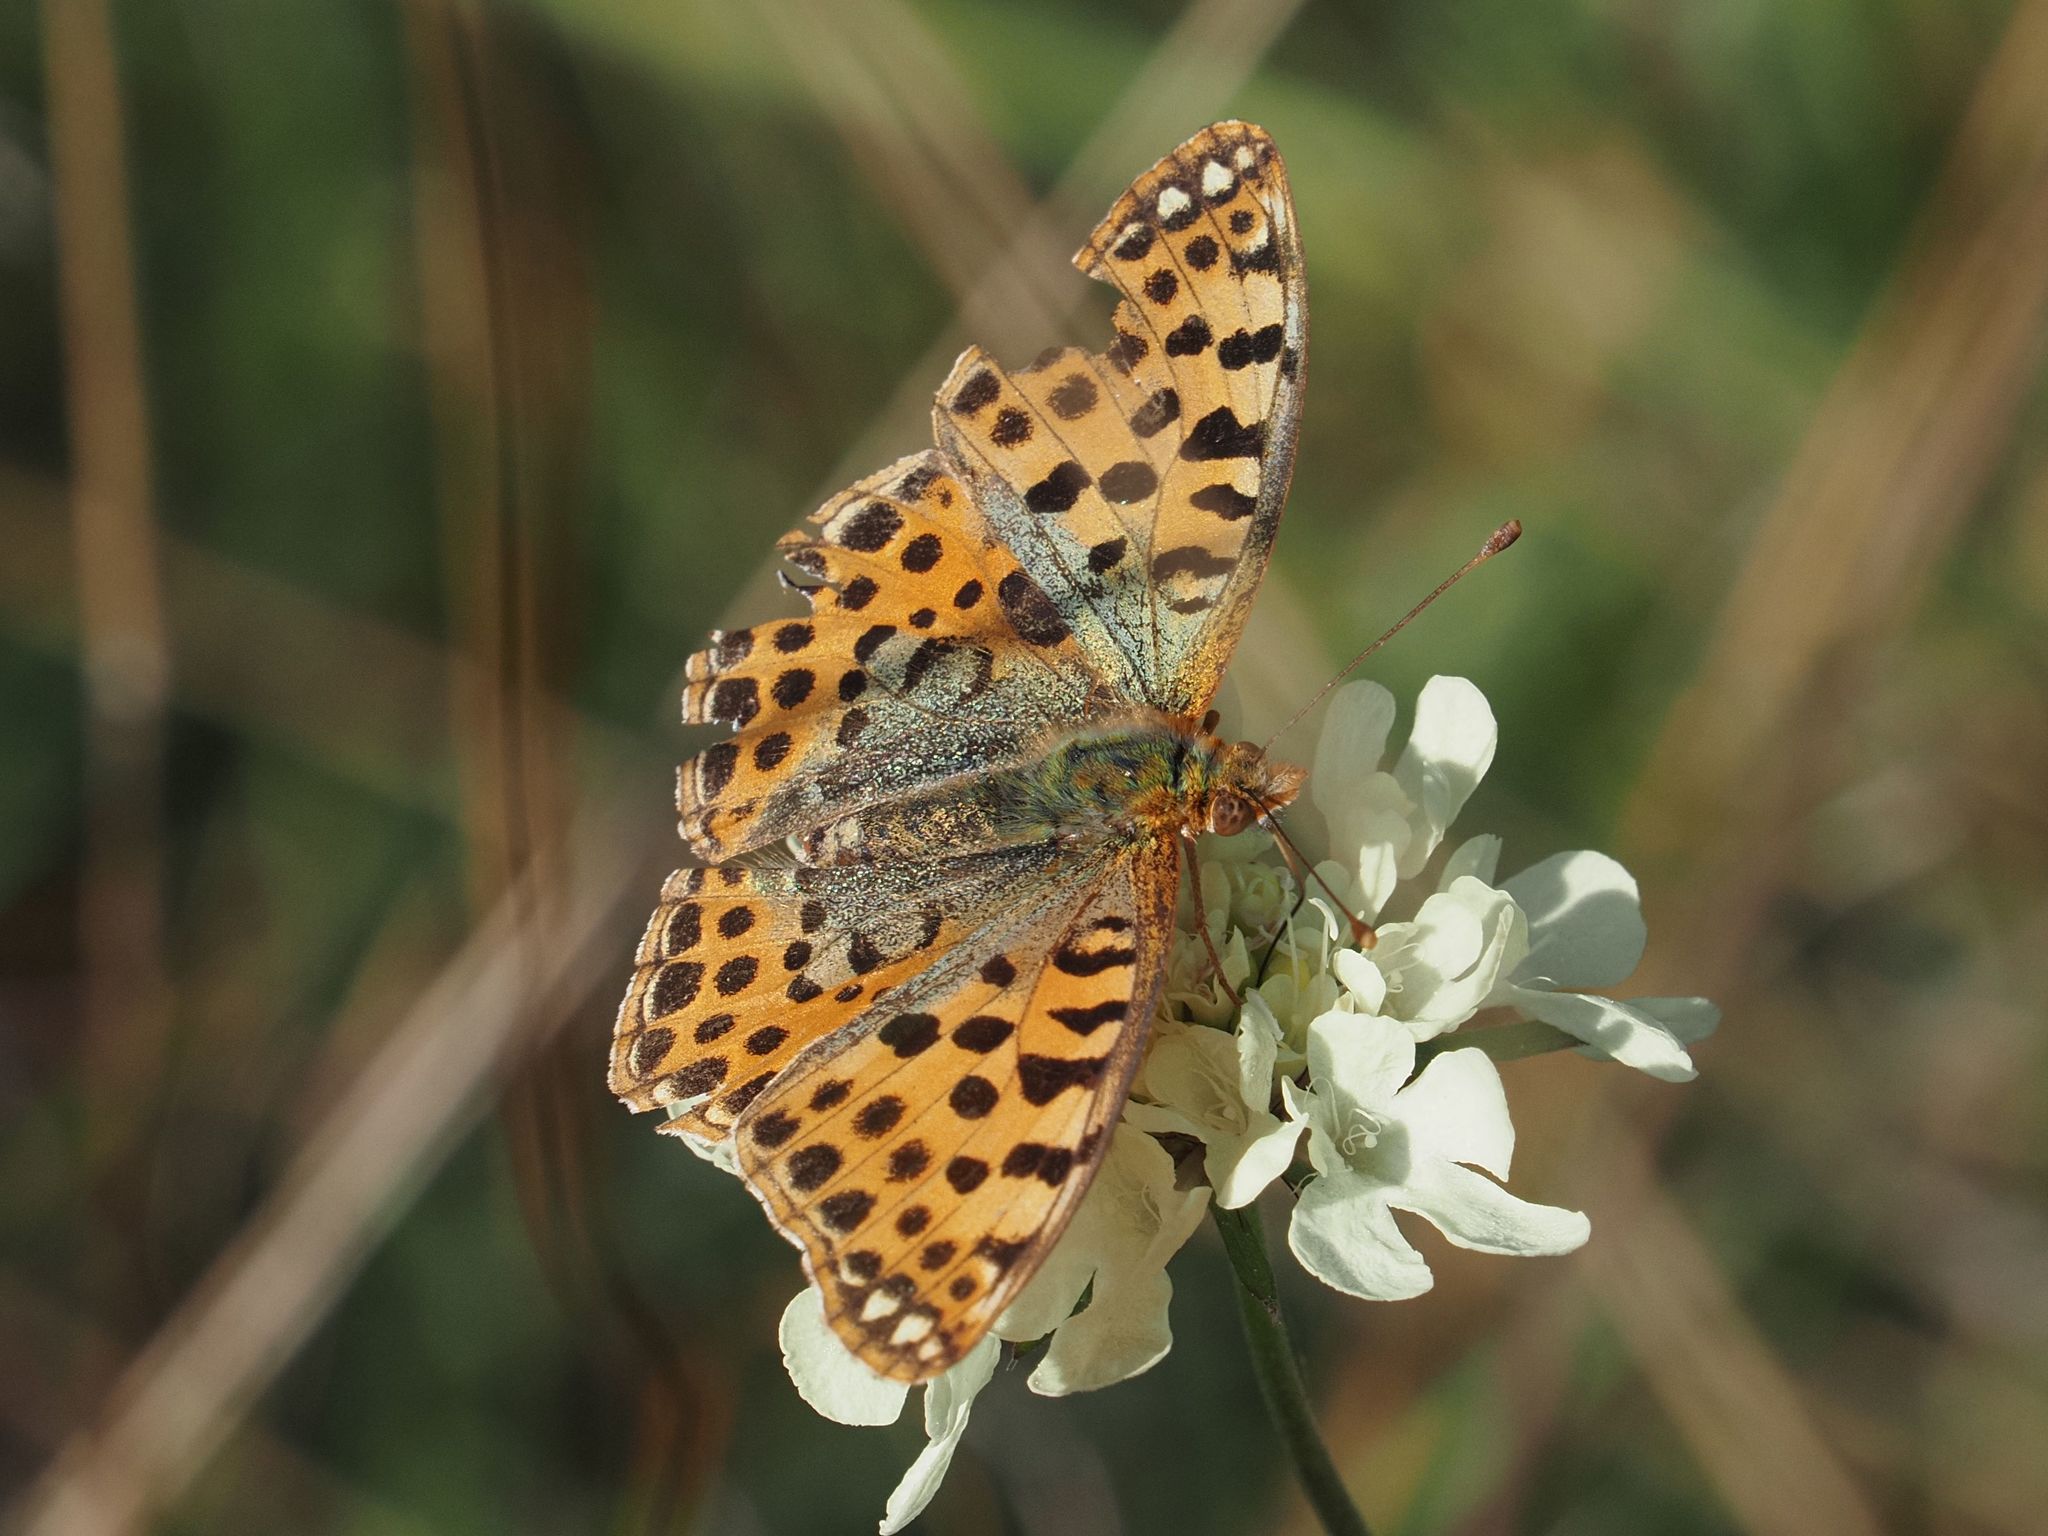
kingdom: Animalia
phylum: Arthropoda
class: Insecta
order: Lepidoptera
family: Nymphalidae
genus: Issoria
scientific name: Issoria lathonia
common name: Queen of spain fritillary
